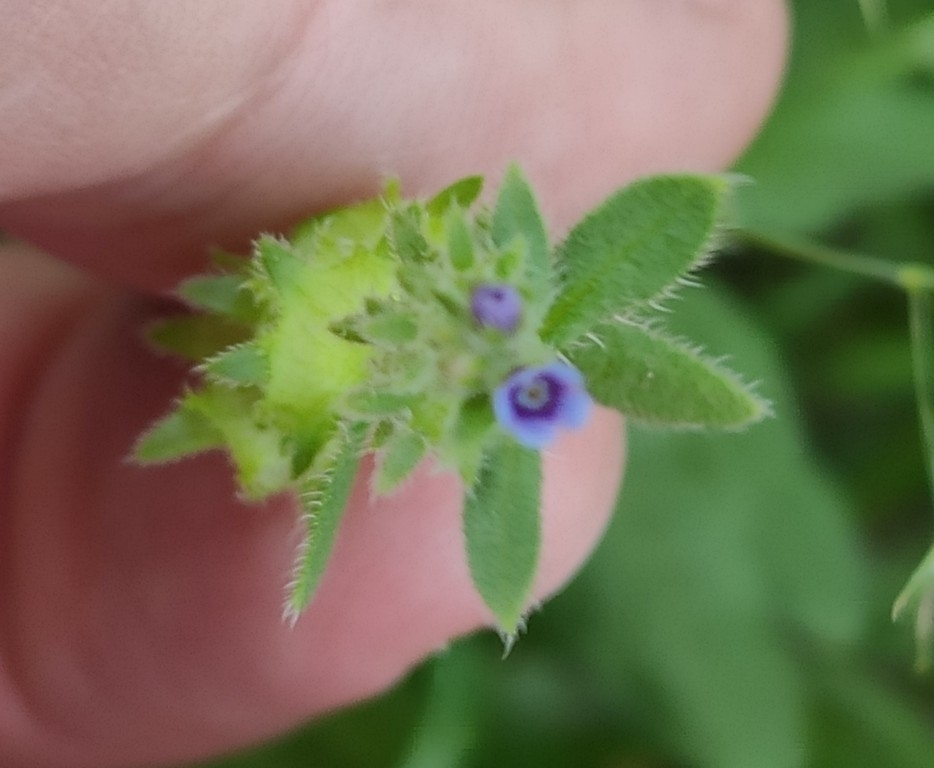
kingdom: Plantae
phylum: Tracheophyta
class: Magnoliopsida
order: Boraginales
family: Boraginaceae
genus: Asperugo
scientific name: Asperugo procumbens
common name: Madwort
